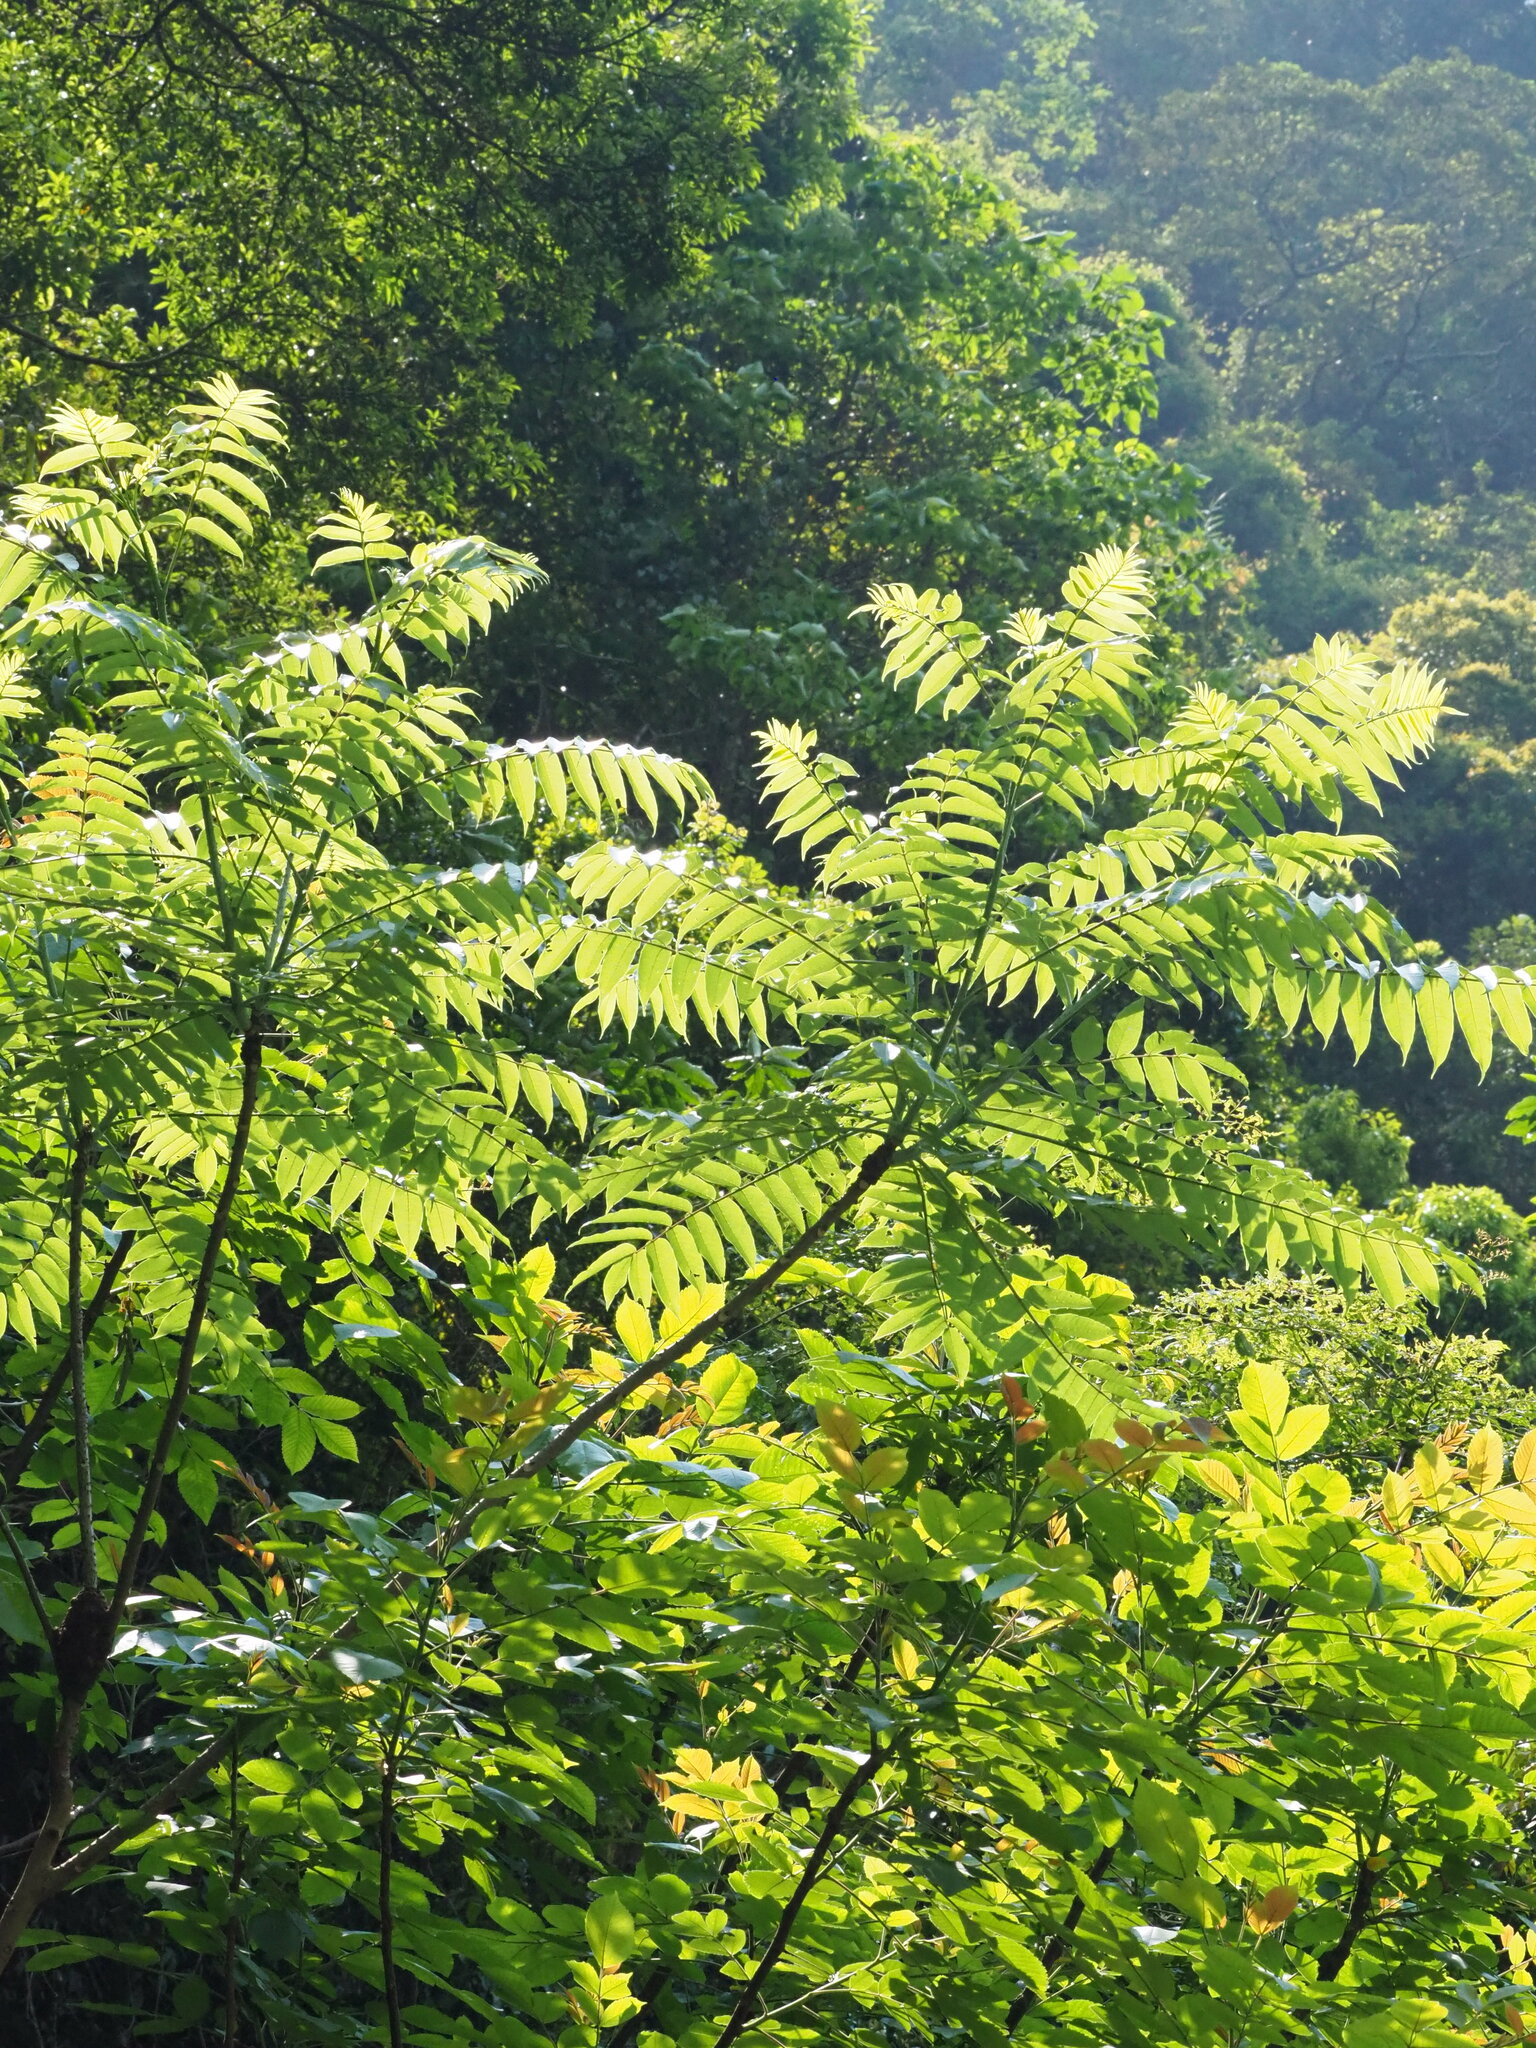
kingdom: Plantae
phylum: Tracheophyta
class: Magnoliopsida
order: Sapindales
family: Rutaceae
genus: Zanthoxylum
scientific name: Zanthoxylum ailanthoides
